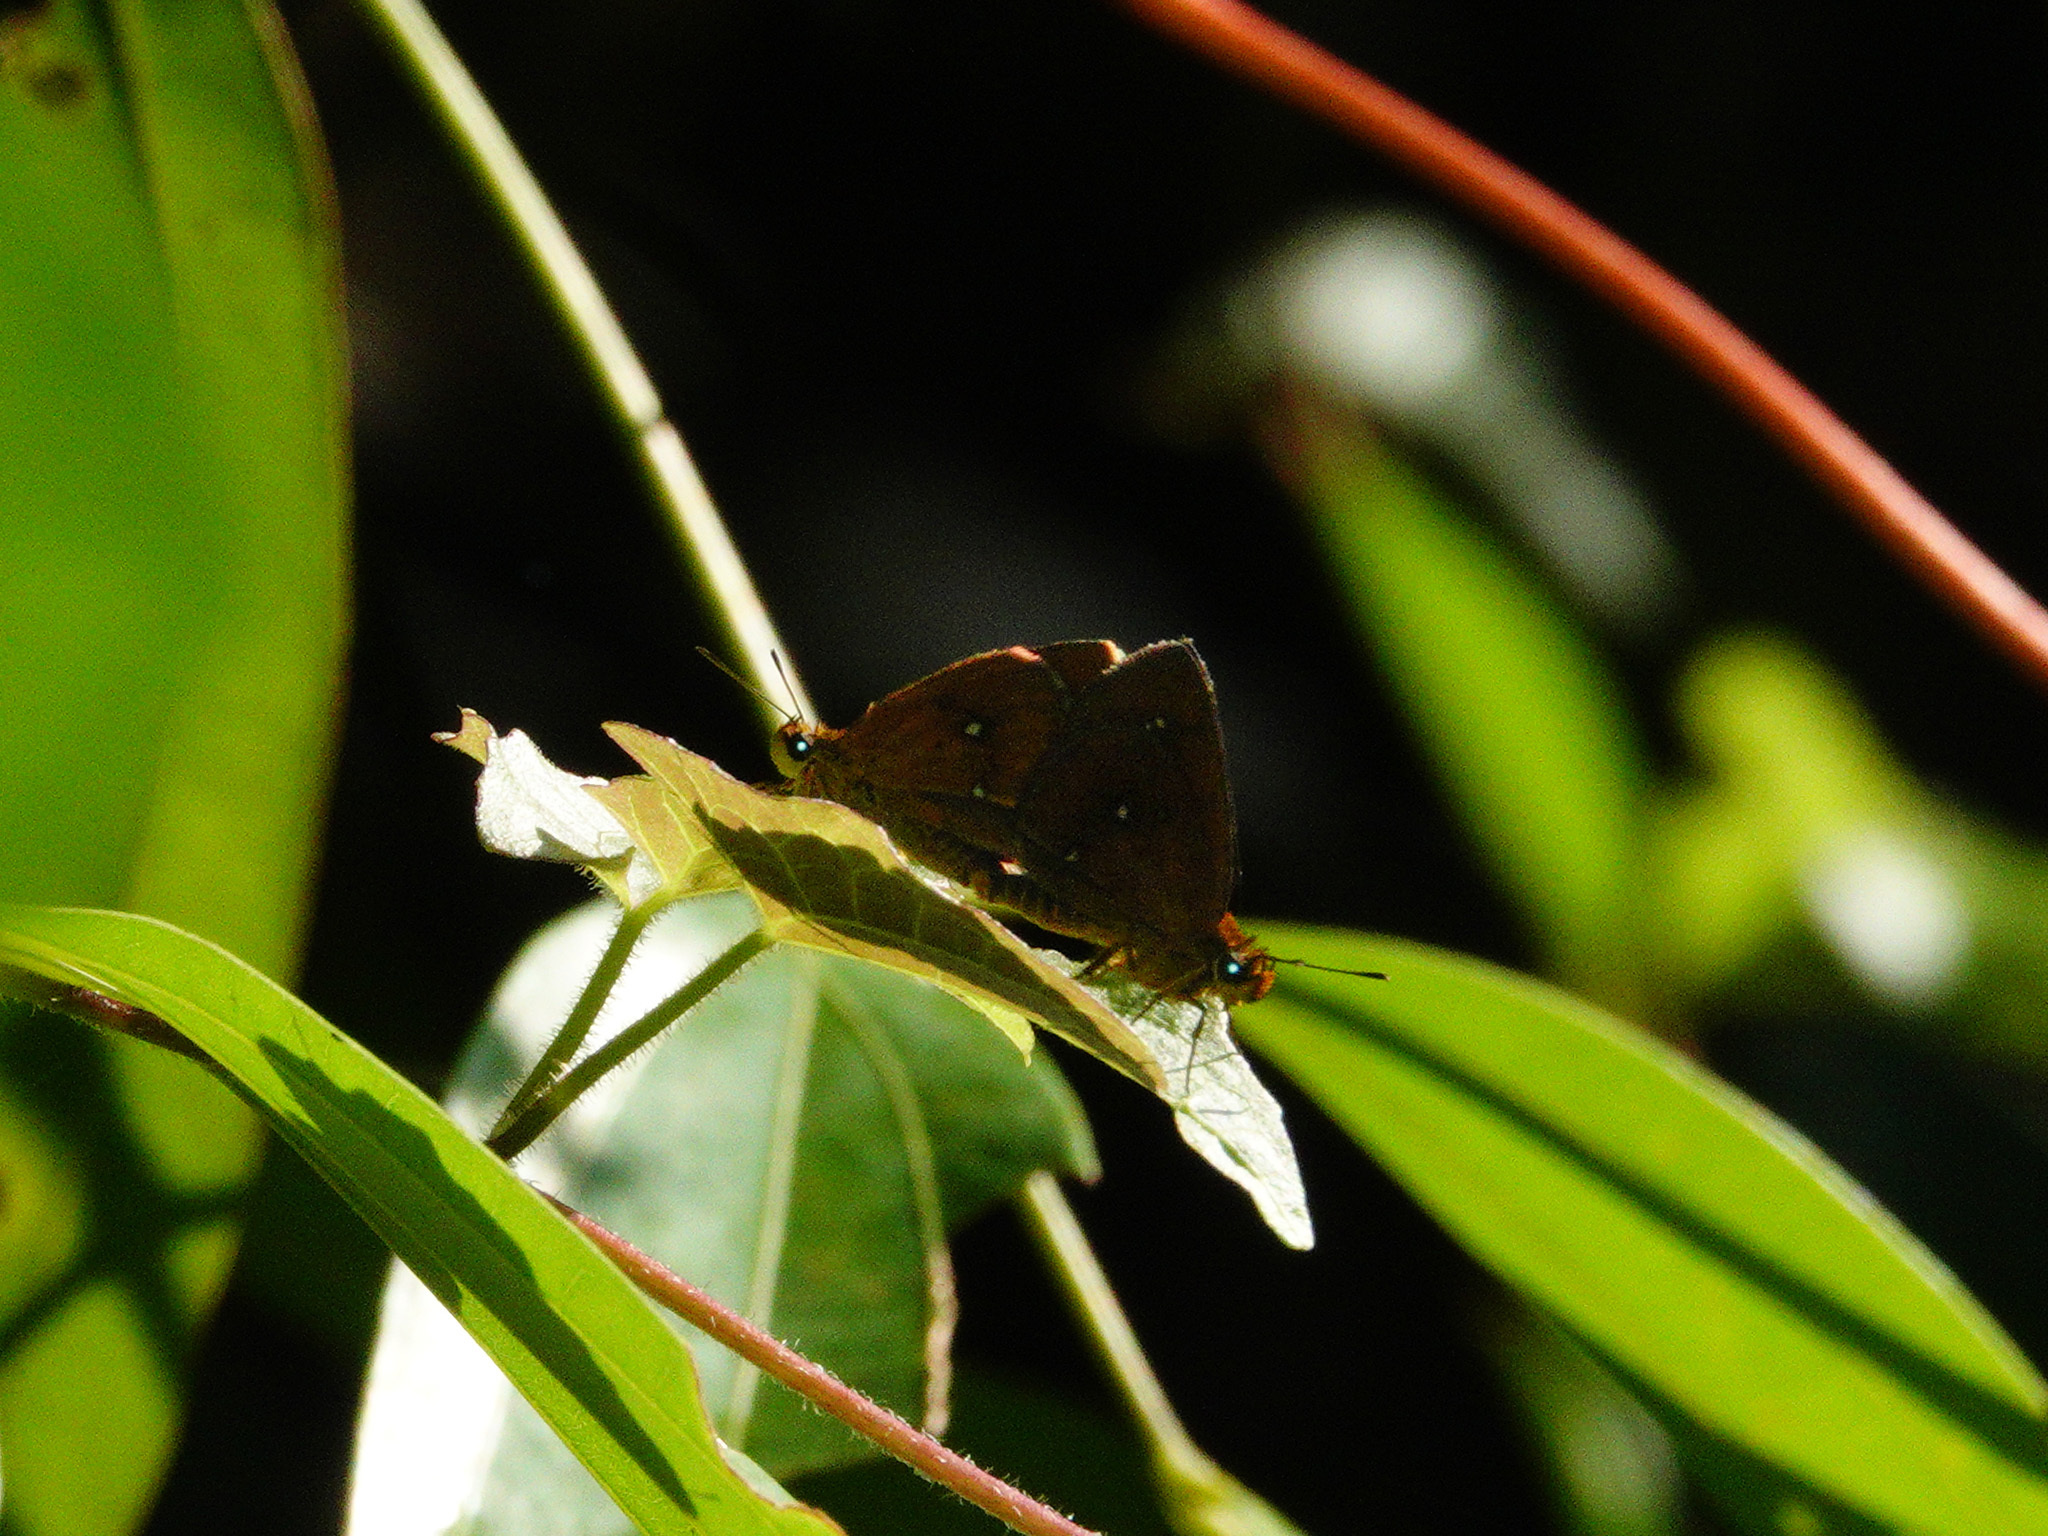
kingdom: Animalia
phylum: Arthropoda
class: Insecta
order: Lepidoptera
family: Hesperiidae
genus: Iambrix
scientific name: Iambrix salsala
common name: Chestnut bob
